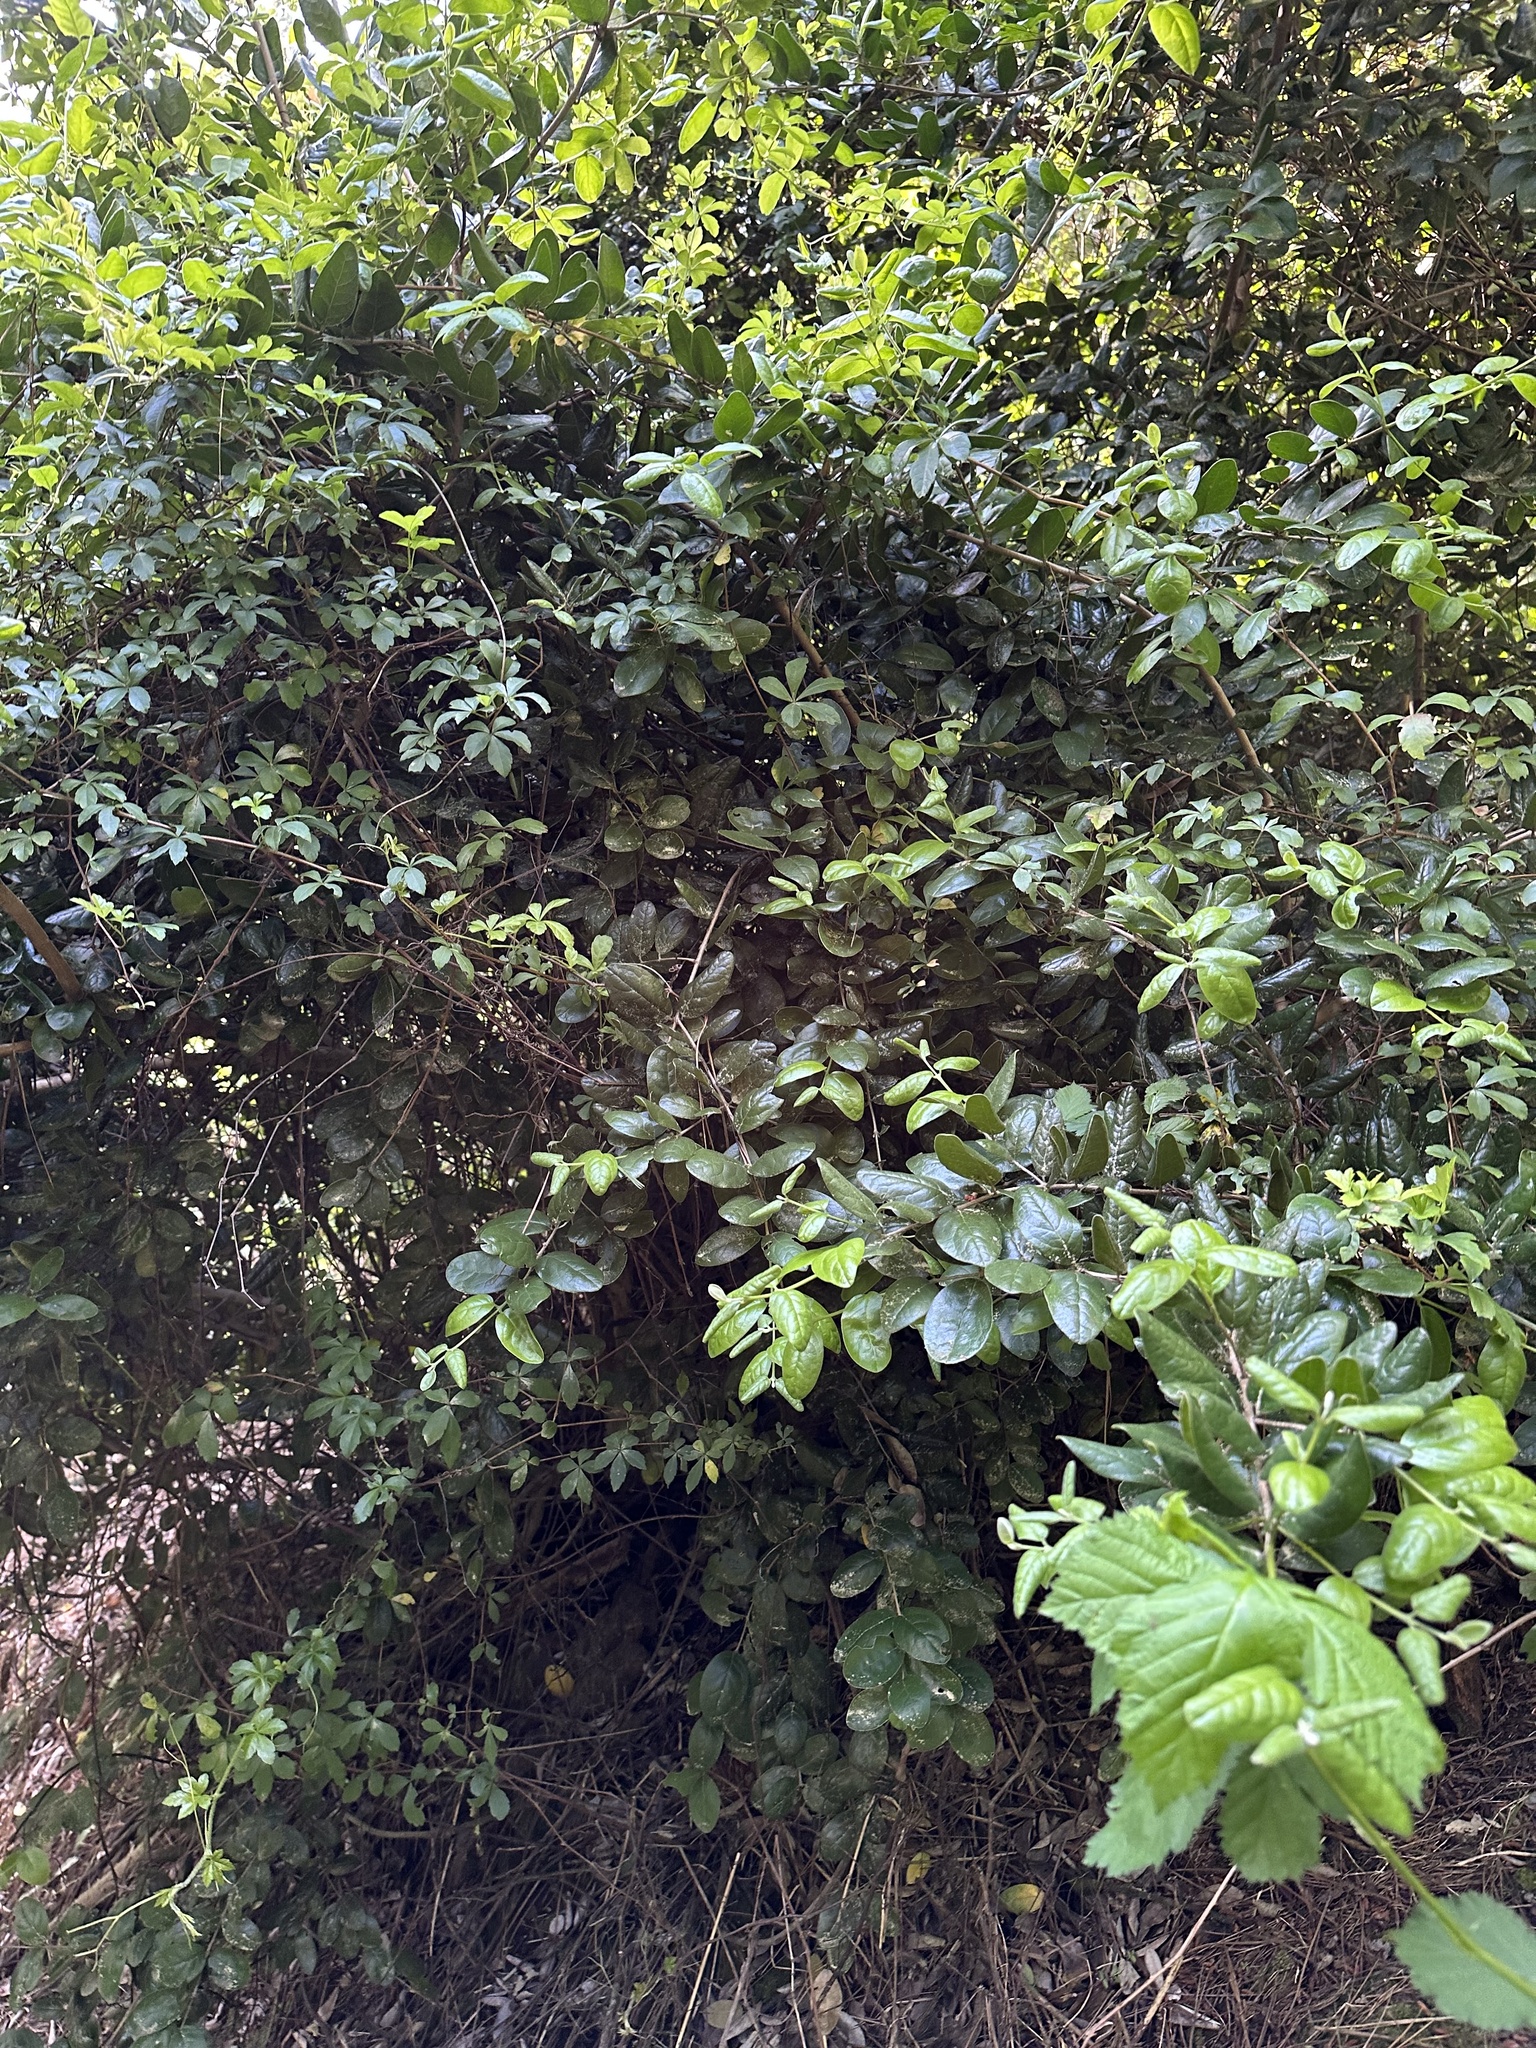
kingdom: Plantae
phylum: Tracheophyta
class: Magnoliopsida
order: Laurales
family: Monimiaceae
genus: Peumus
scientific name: Peumus boldus
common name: Boldo
